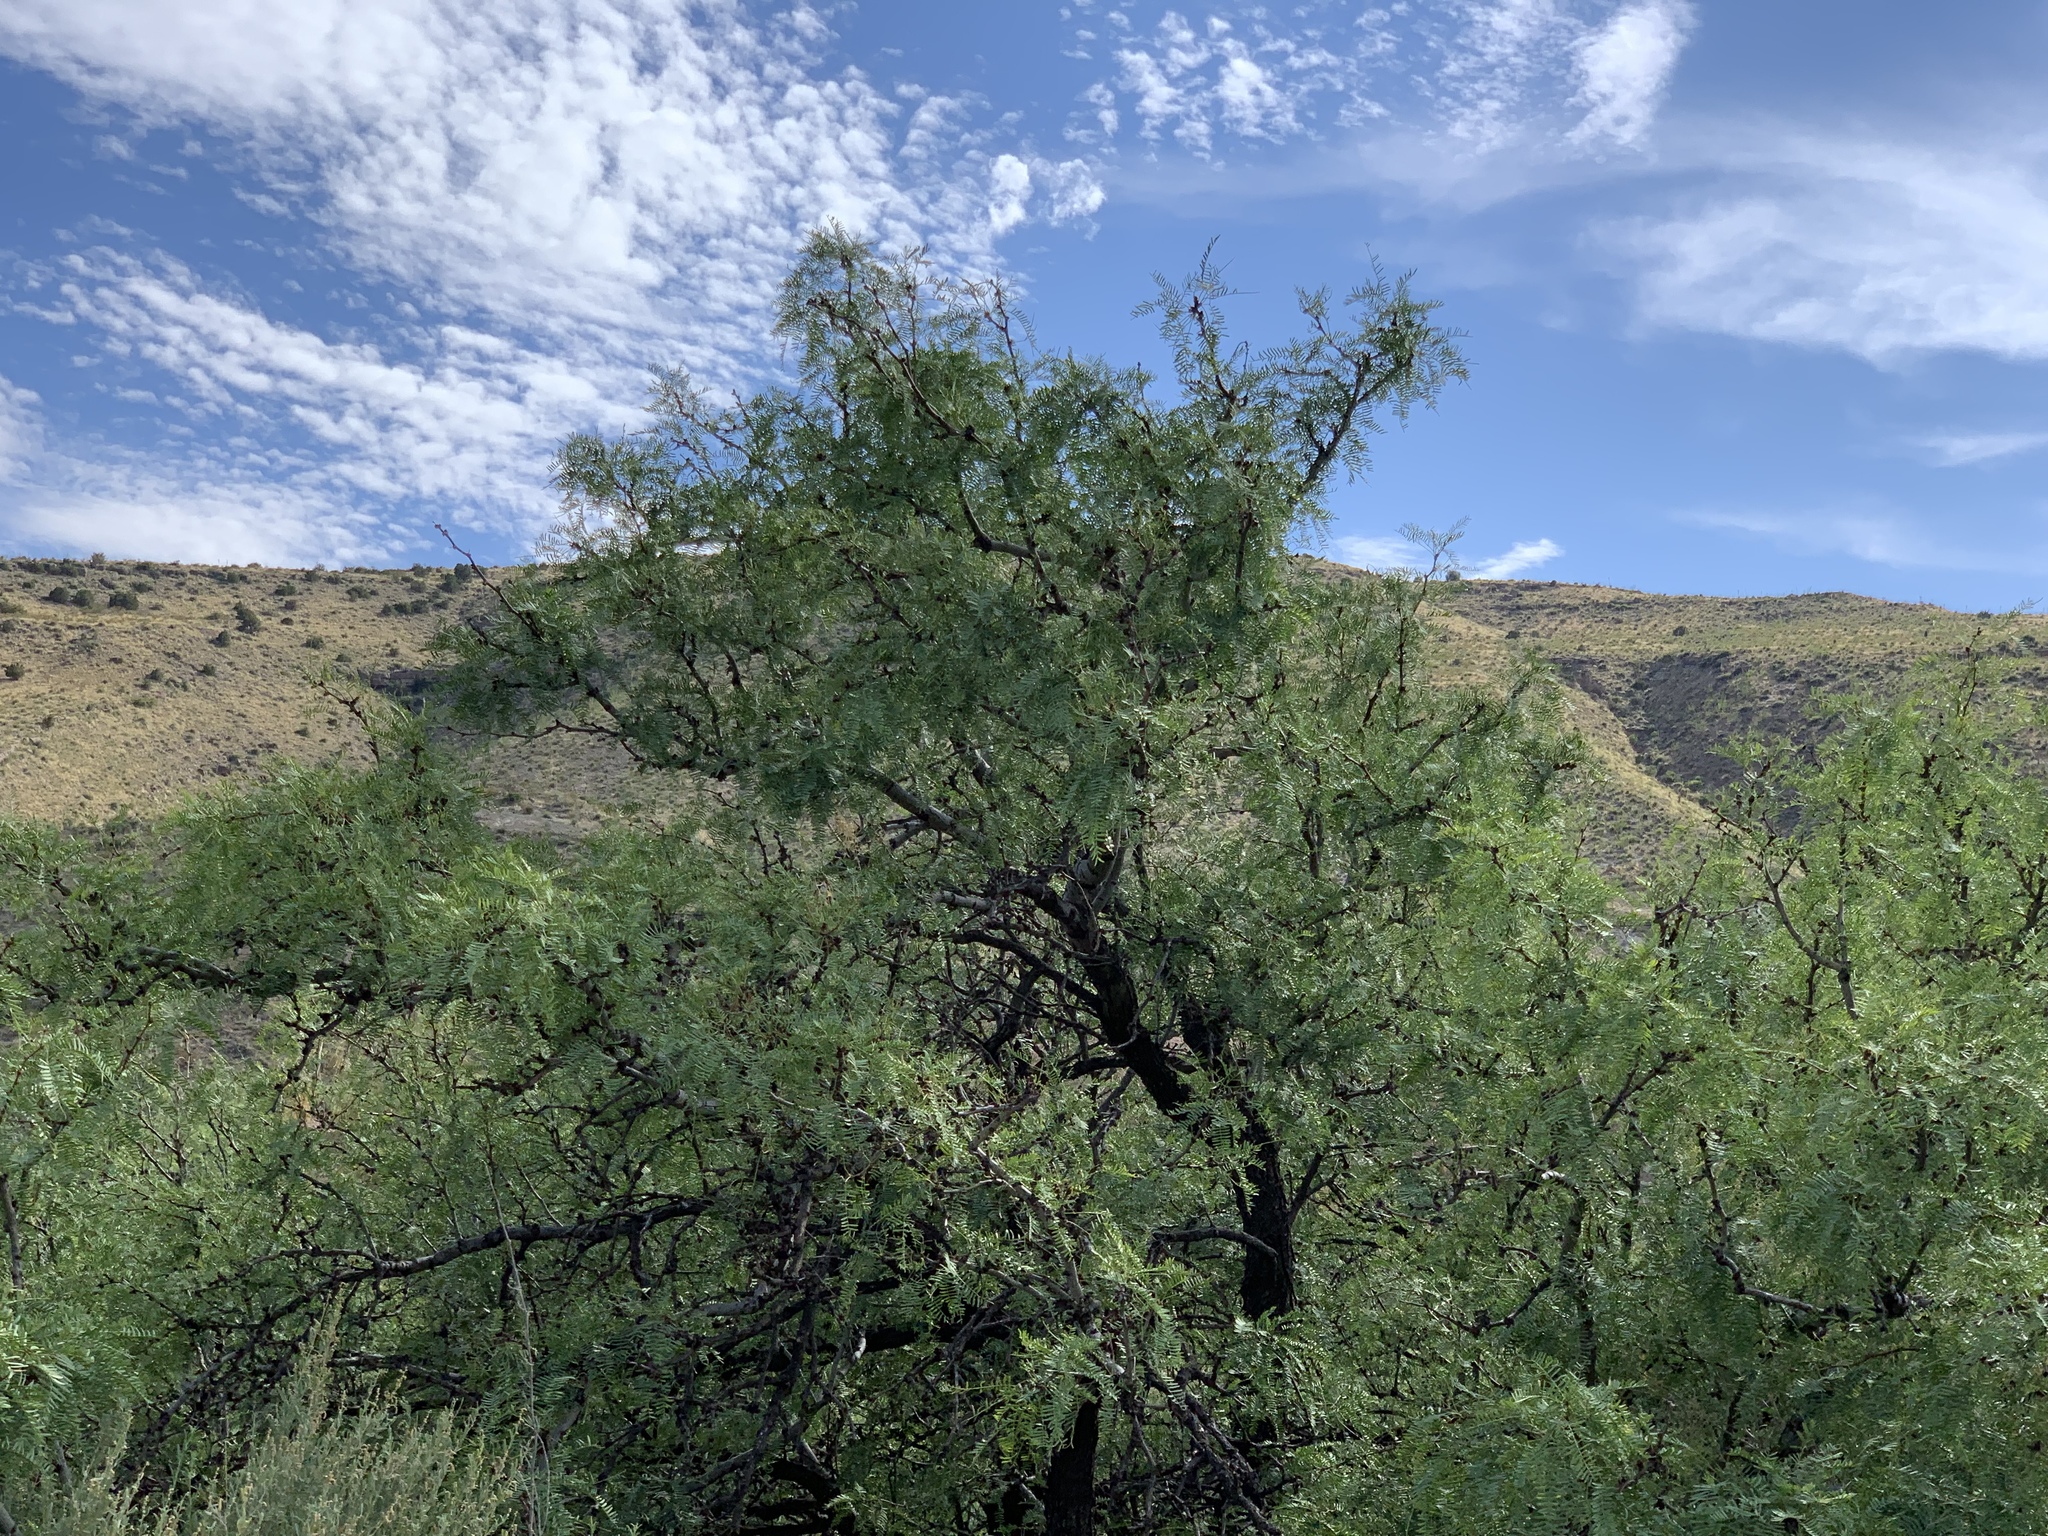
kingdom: Plantae
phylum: Tracheophyta
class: Magnoliopsida
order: Fabales
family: Fabaceae
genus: Prosopis
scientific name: Prosopis glandulosa
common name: Honey mesquite
